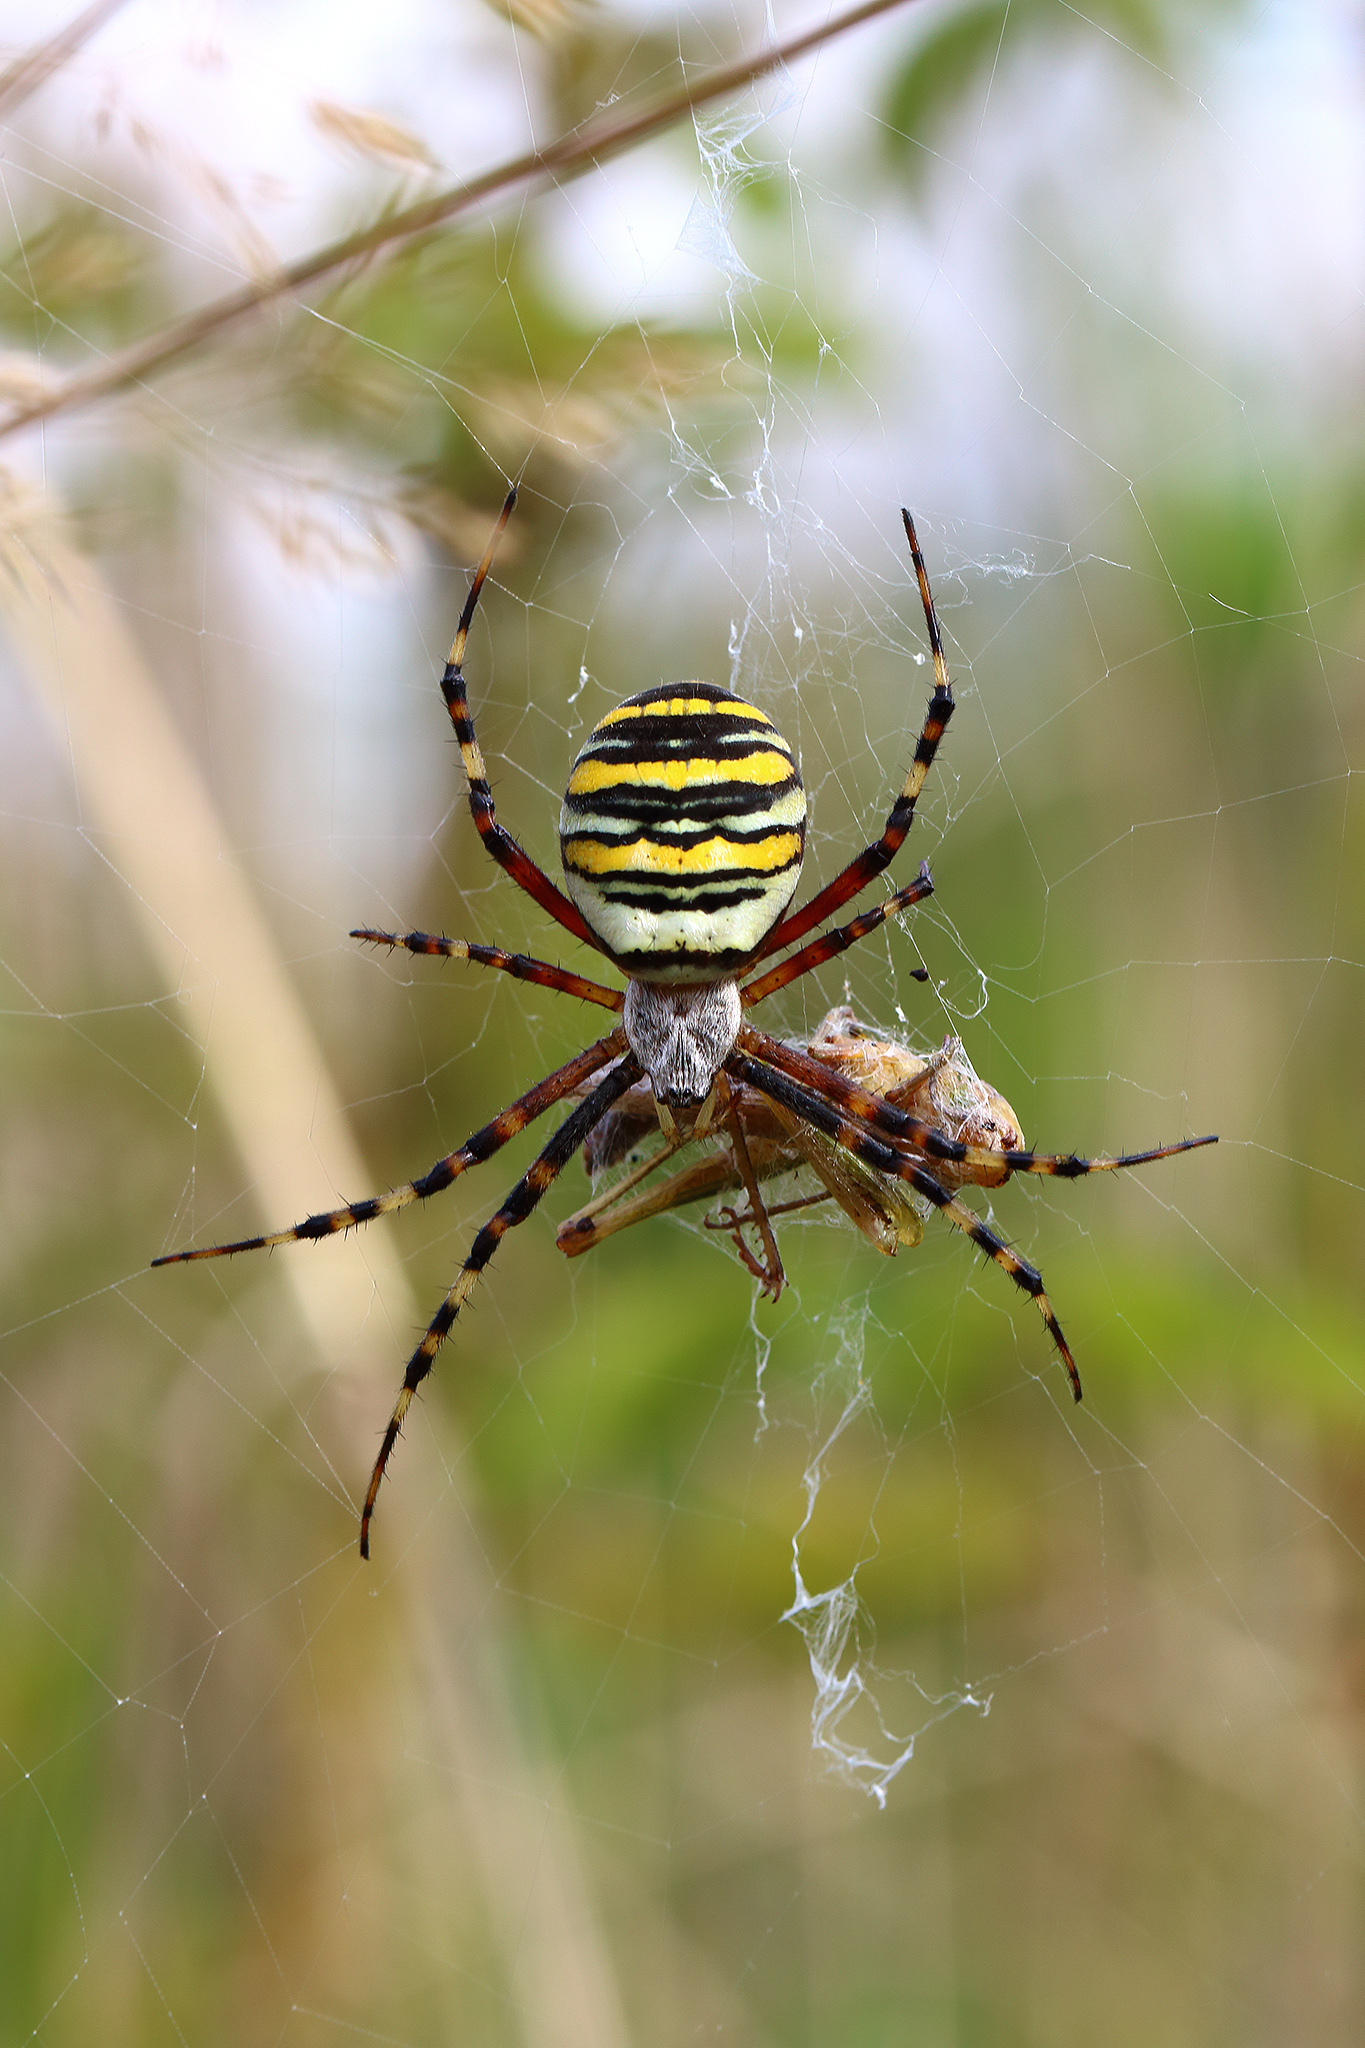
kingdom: Animalia
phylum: Arthropoda
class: Arachnida
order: Araneae
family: Araneidae
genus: Argiope
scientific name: Argiope bruennichi
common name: Wasp spider
